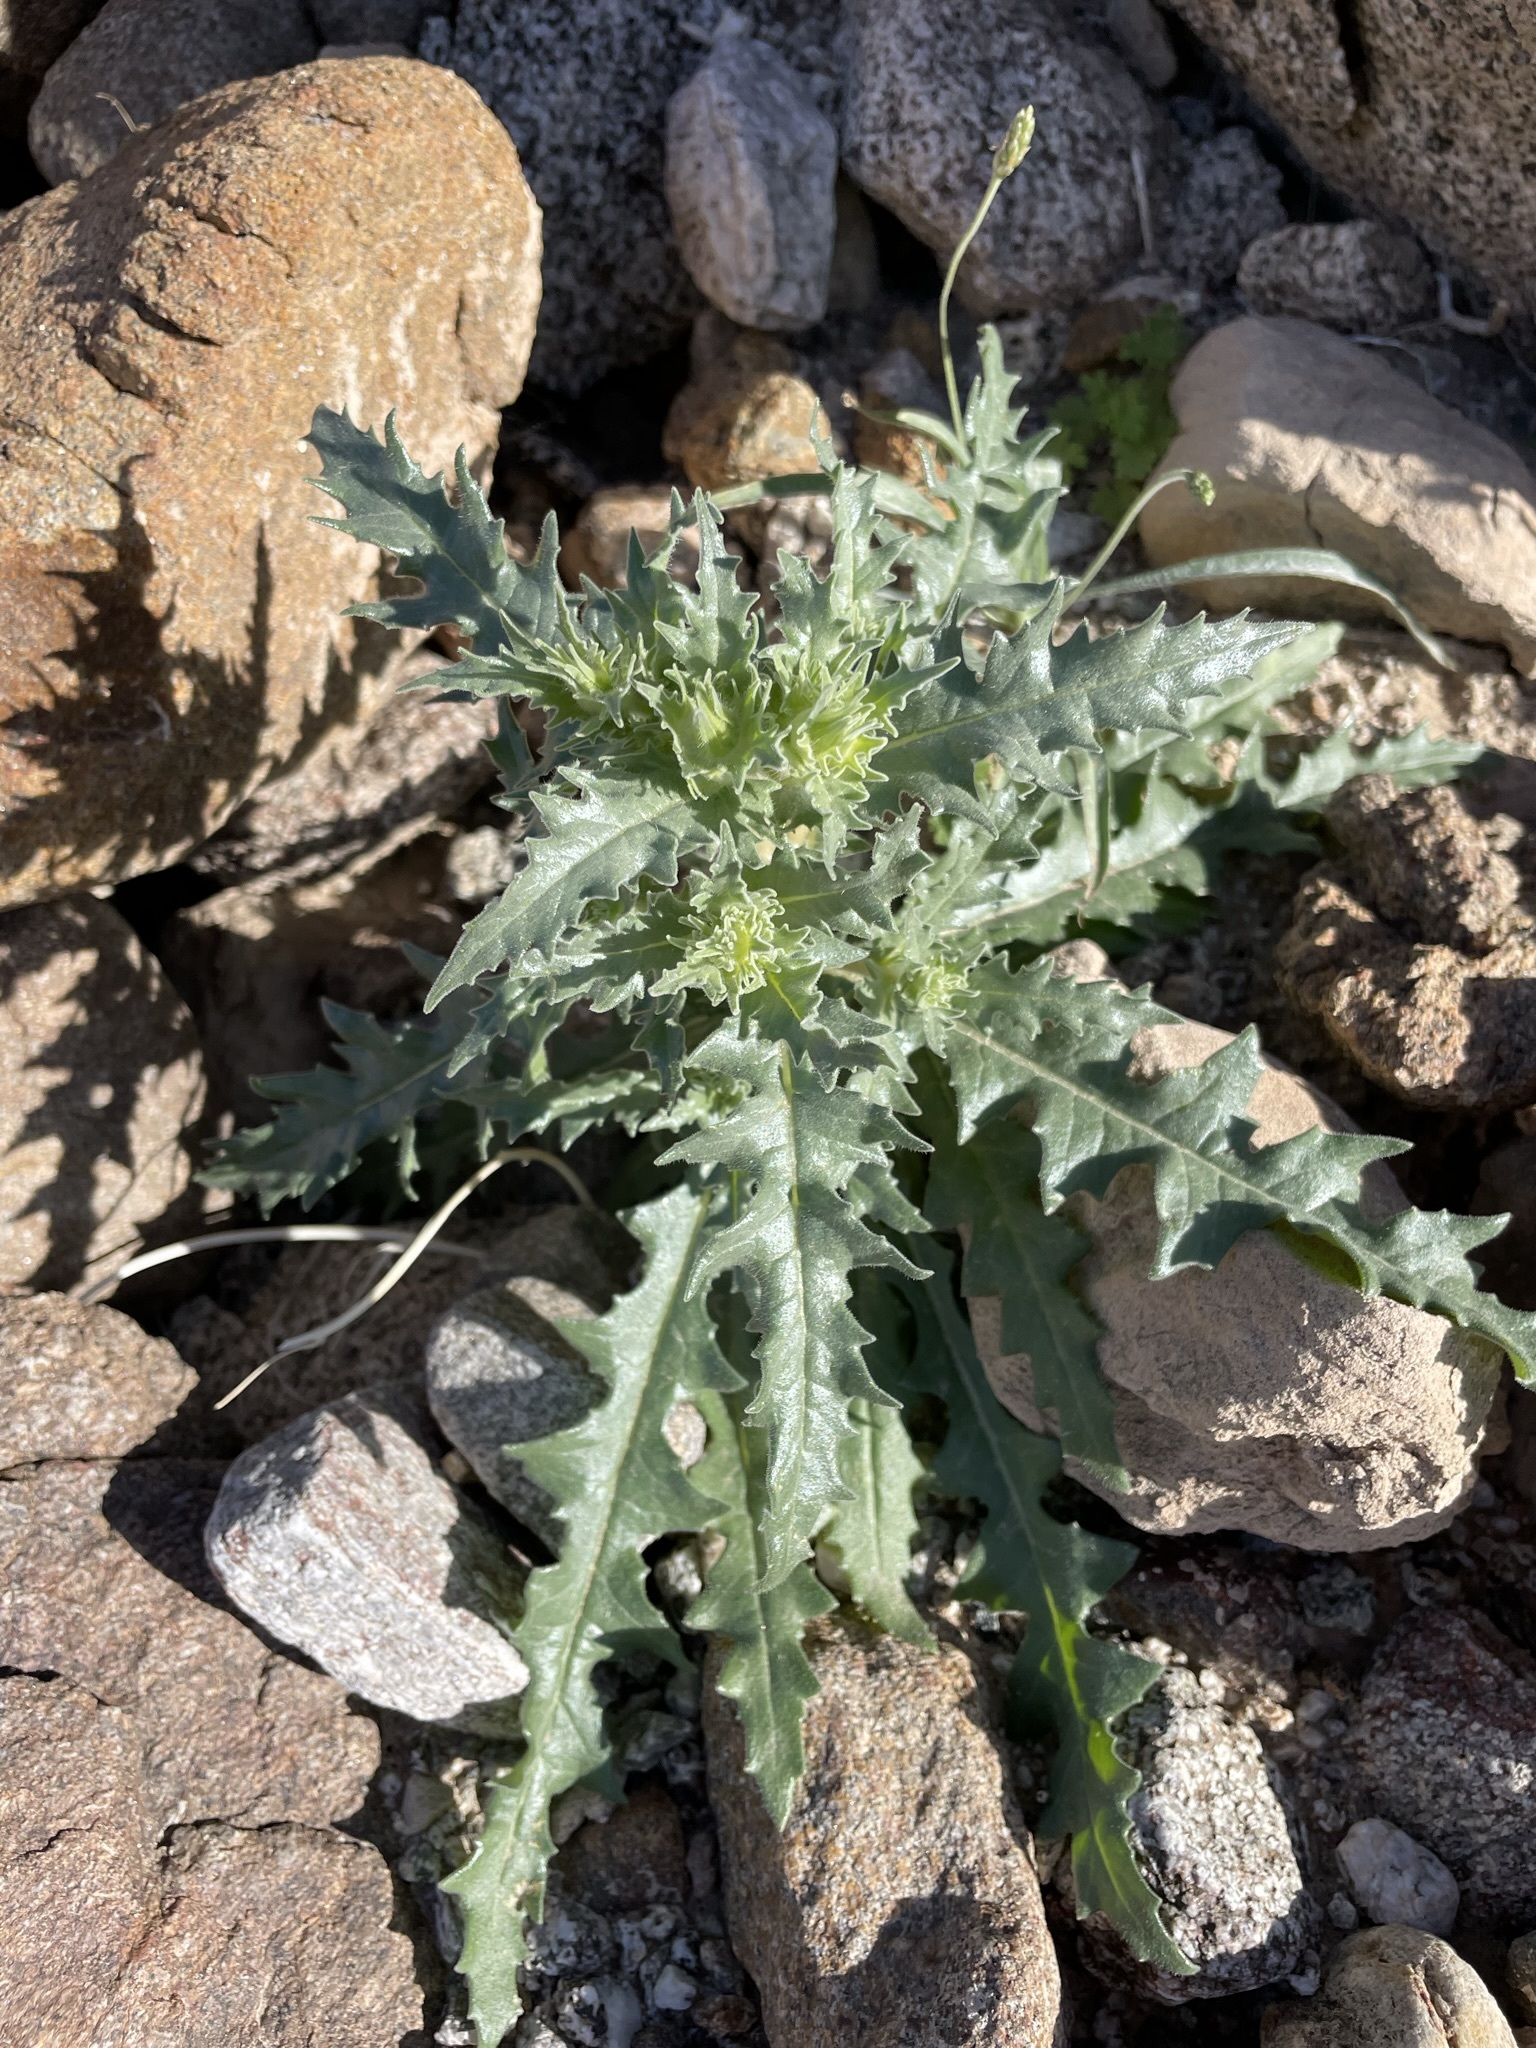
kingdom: Plantae
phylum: Tracheophyta
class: Magnoliopsida
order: Cornales
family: Loasaceae
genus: Mentzelia
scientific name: Mentzelia involucrata
